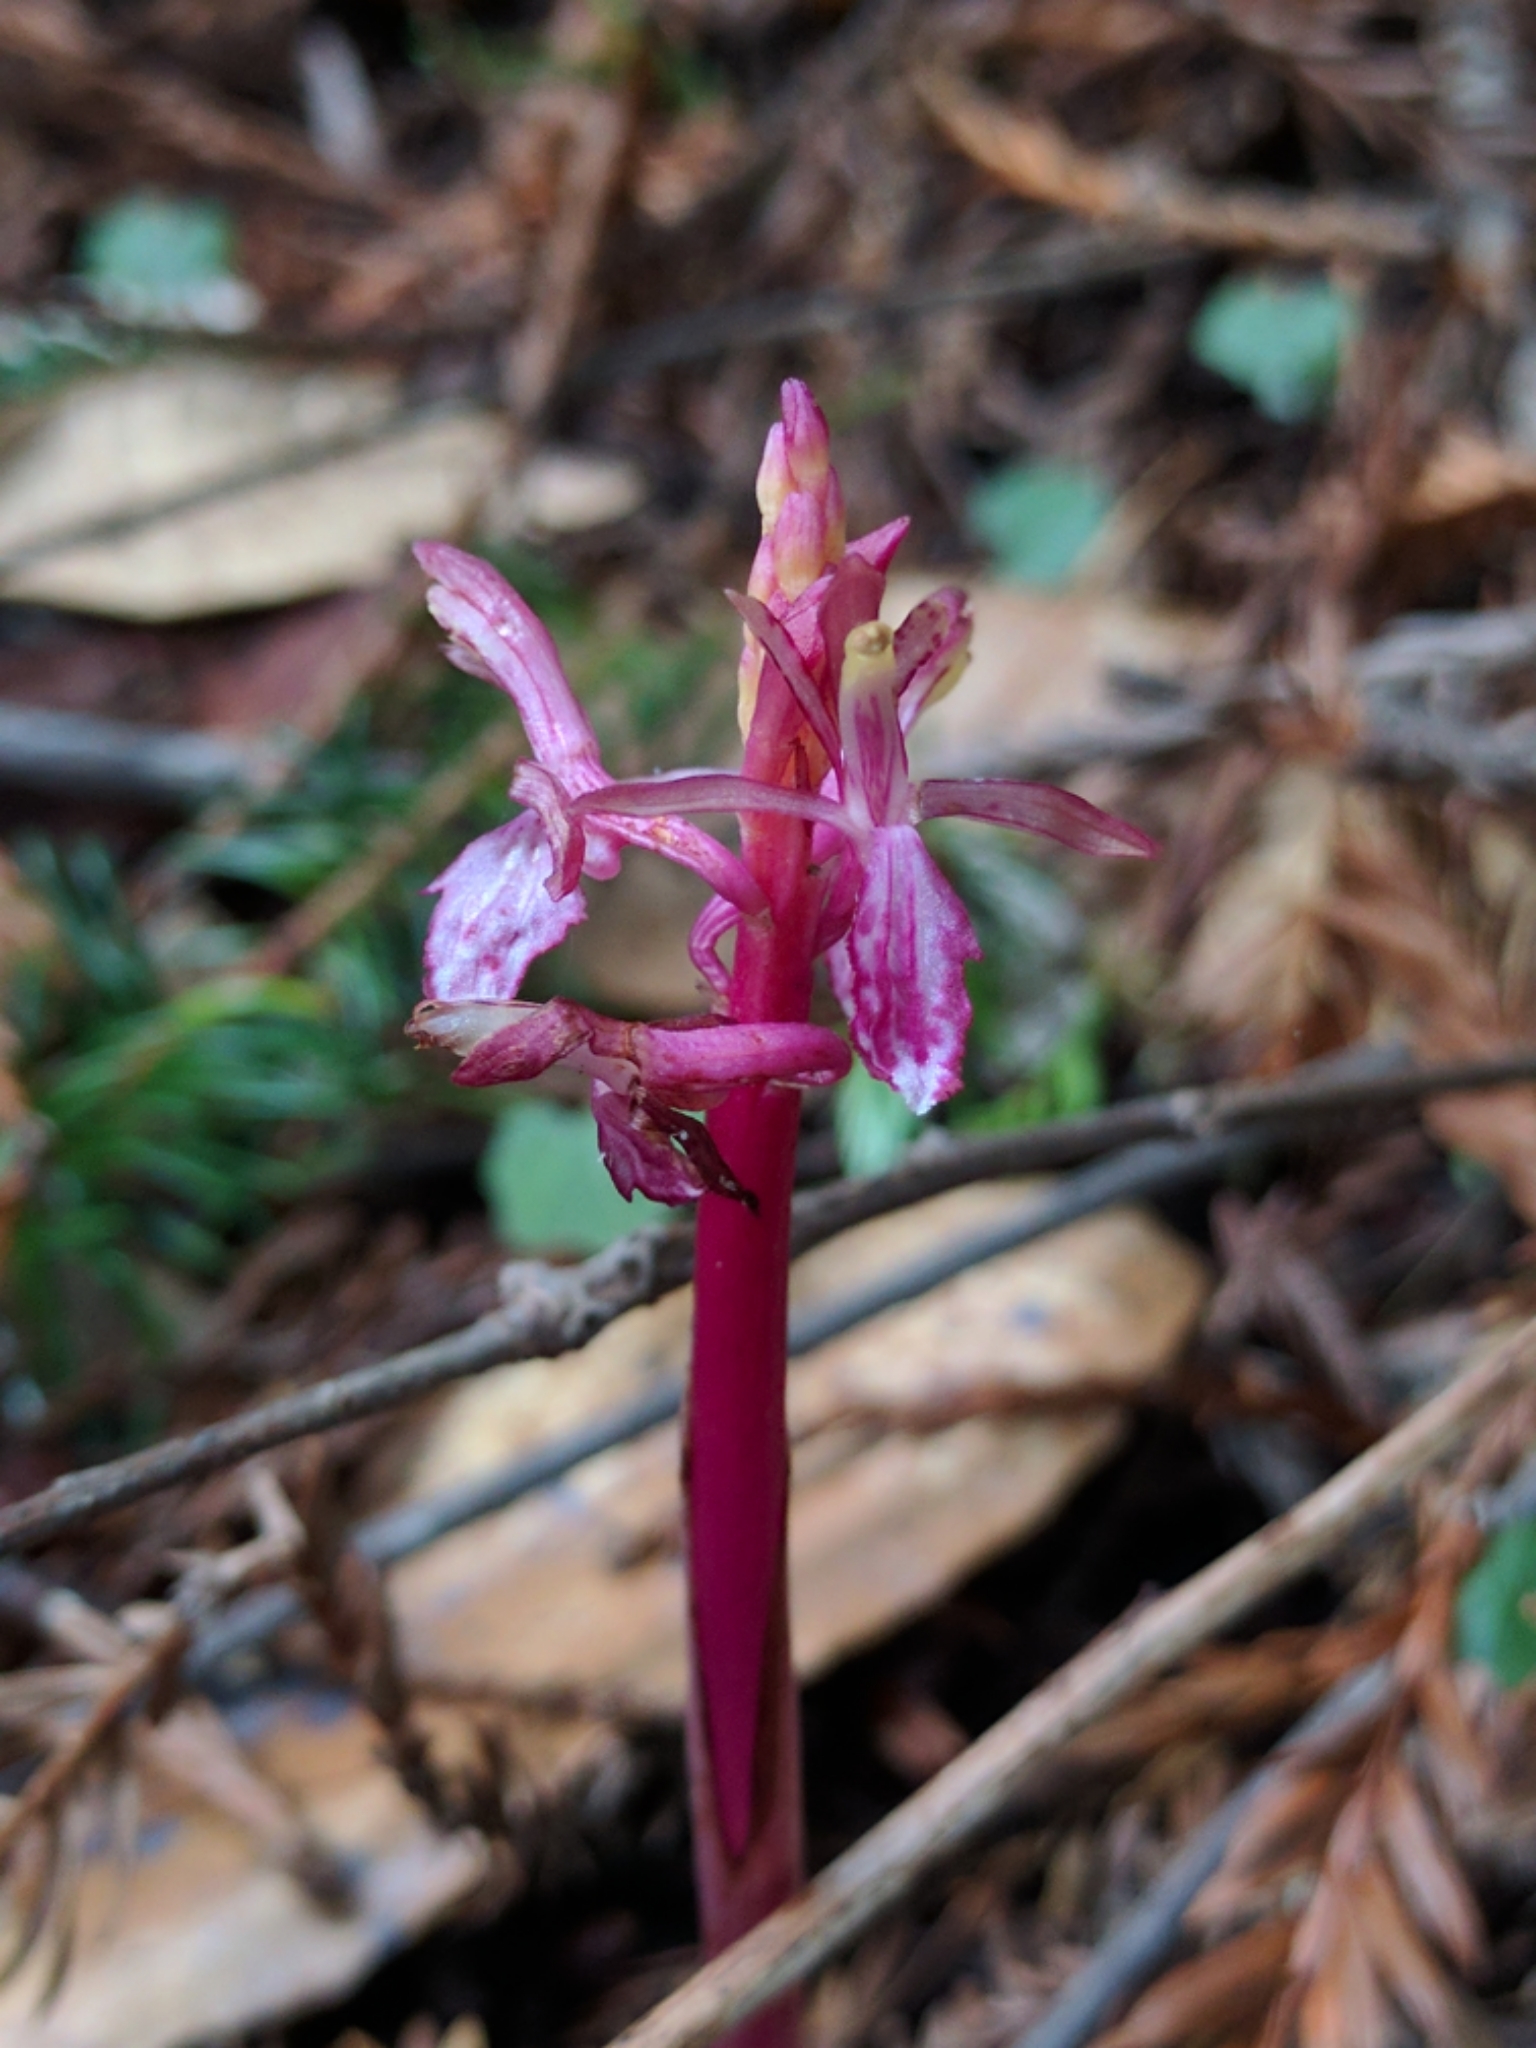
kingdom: Plantae
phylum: Tracheophyta
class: Liliopsida
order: Asparagales
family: Orchidaceae
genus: Corallorhiza
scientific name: Corallorhiza mertensiana
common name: Pacific coralroot
